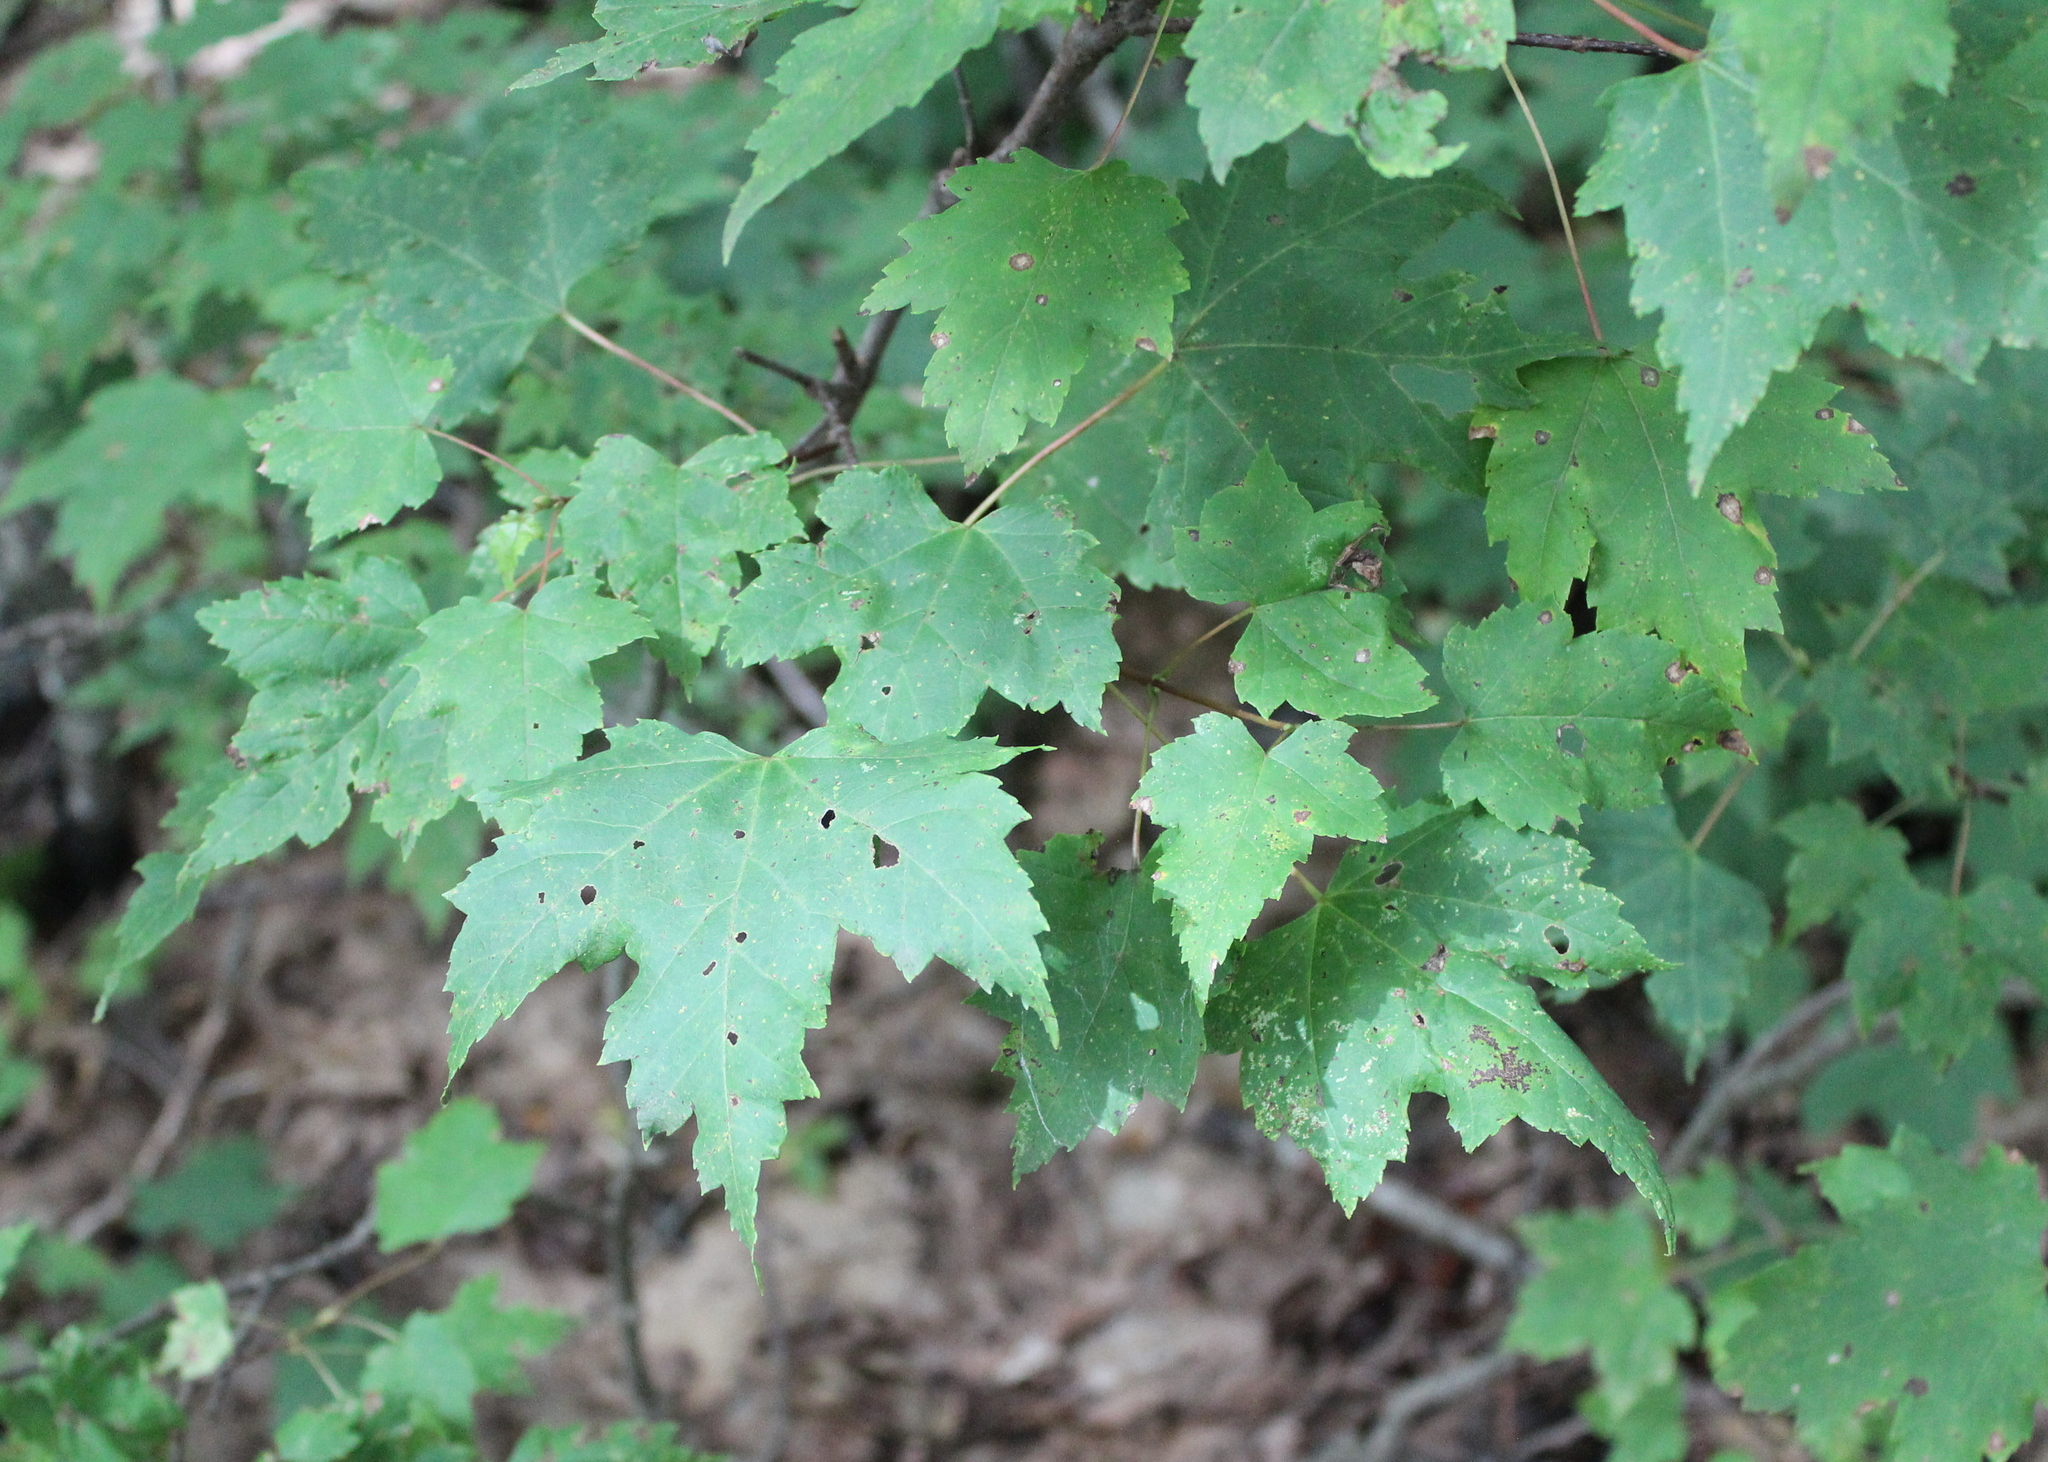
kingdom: Plantae
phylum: Tracheophyta
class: Magnoliopsida
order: Sapindales
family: Sapindaceae
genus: Acer
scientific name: Acer rubrum
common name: Red maple
